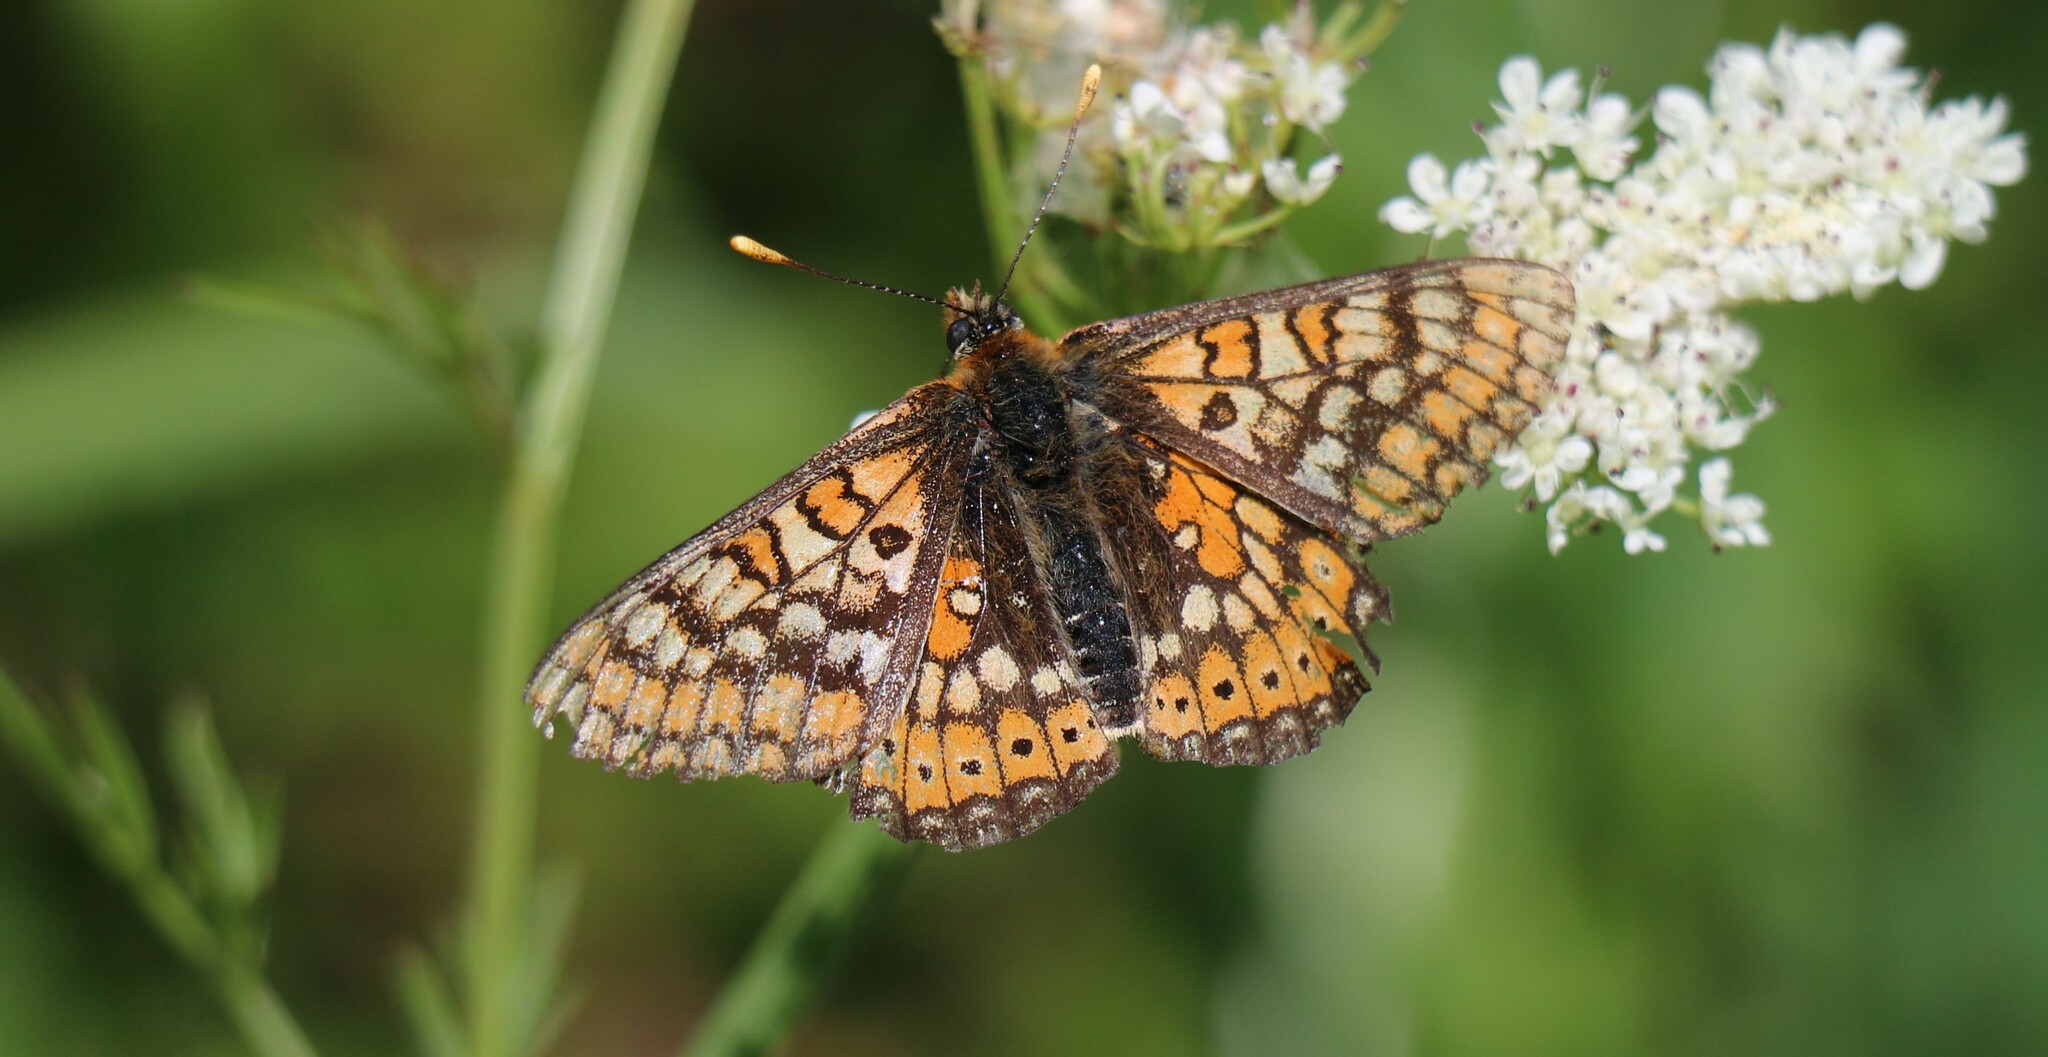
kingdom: Animalia
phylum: Arthropoda
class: Insecta
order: Lepidoptera
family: Nymphalidae
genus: Euphydryas
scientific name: Euphydryas aurinia
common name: Marsh fritillary
